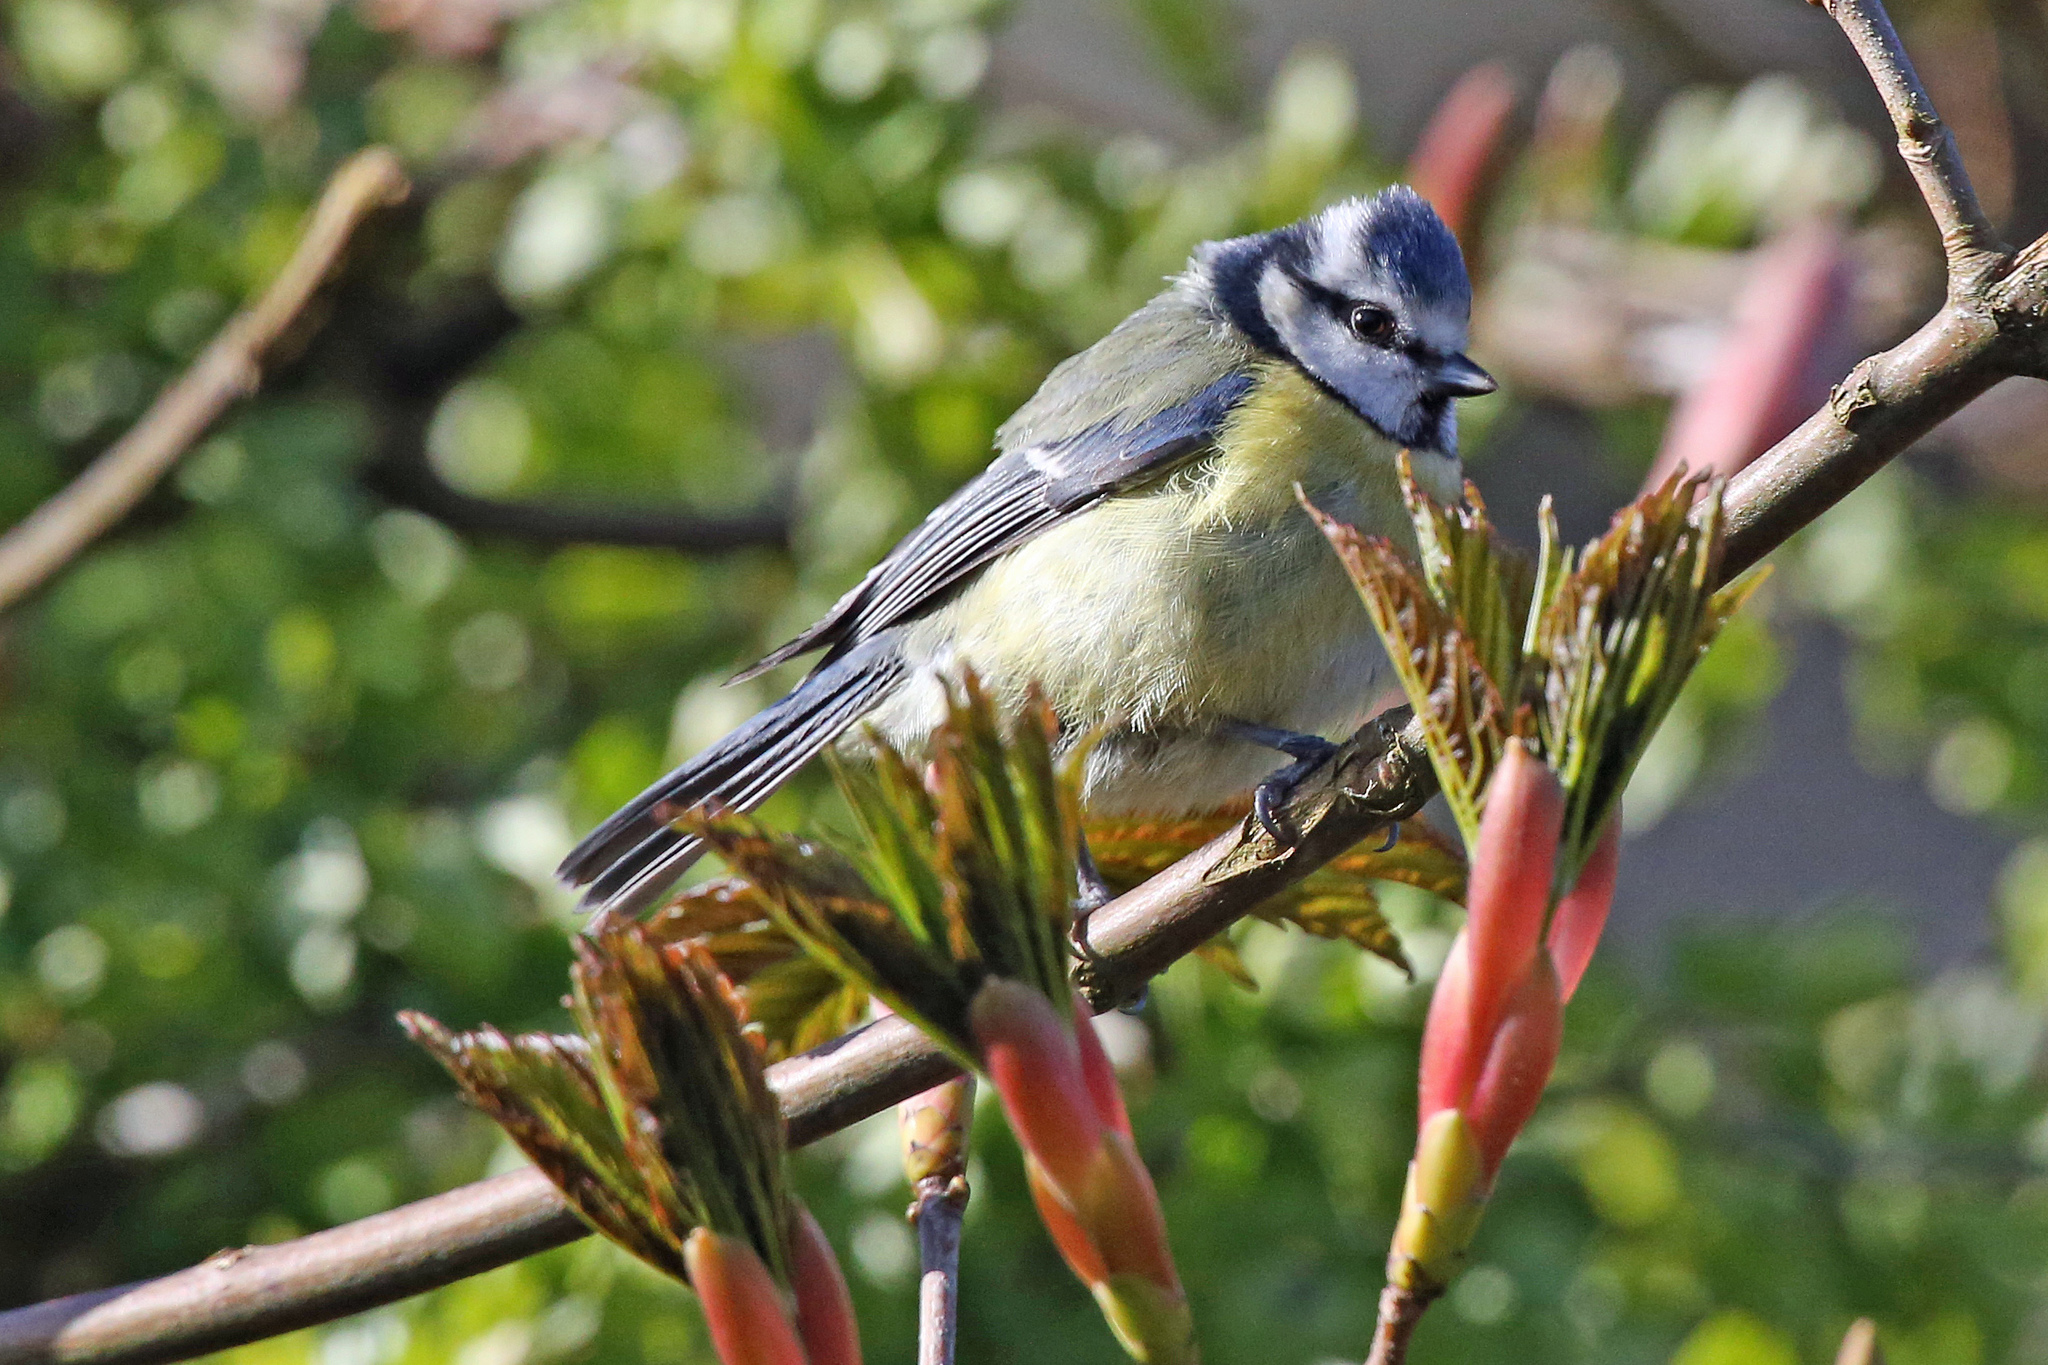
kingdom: Animalia
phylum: Chordata
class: Aves
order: Passeriformes
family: Paridae
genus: Cyanistes
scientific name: Cyanistes caeruleus
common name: Eurasian blue tit
